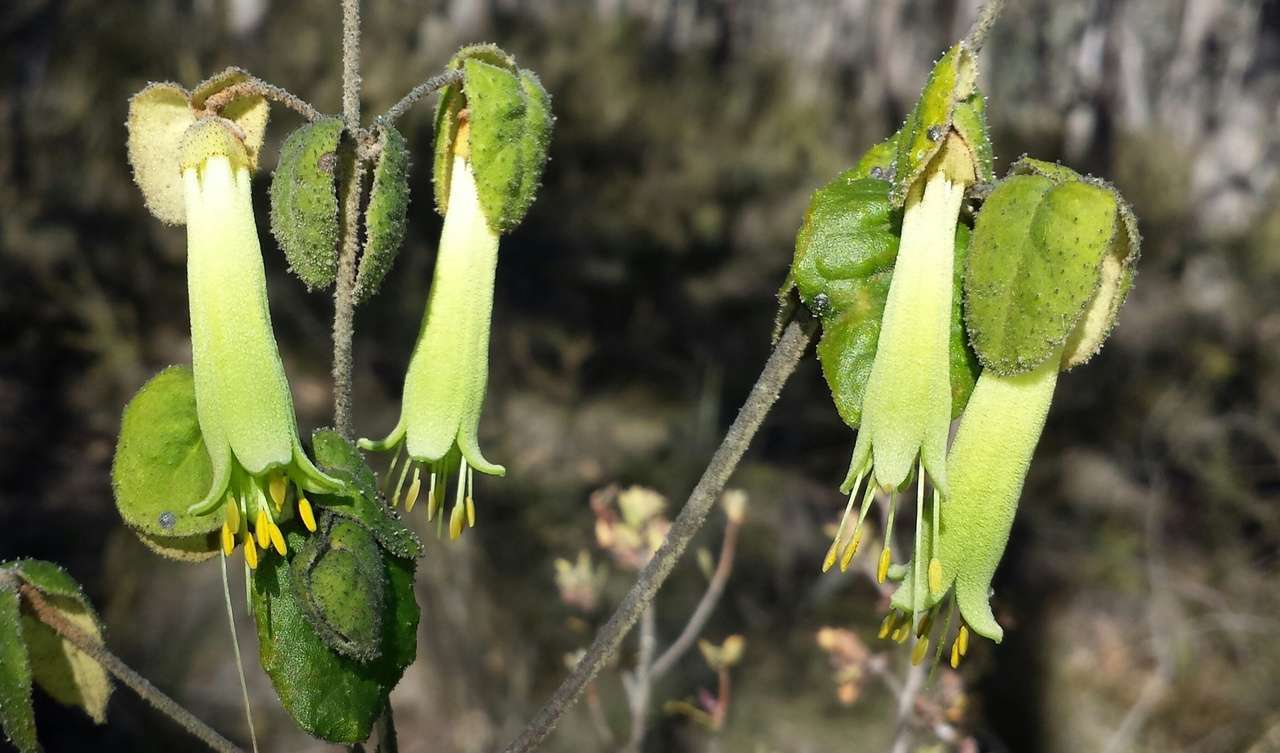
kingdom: Plantae
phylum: Tracheophyta
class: Magnoliopsida
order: Sapindales
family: Rutaceae
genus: Correa
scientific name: Correa reflexa
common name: Common correa
